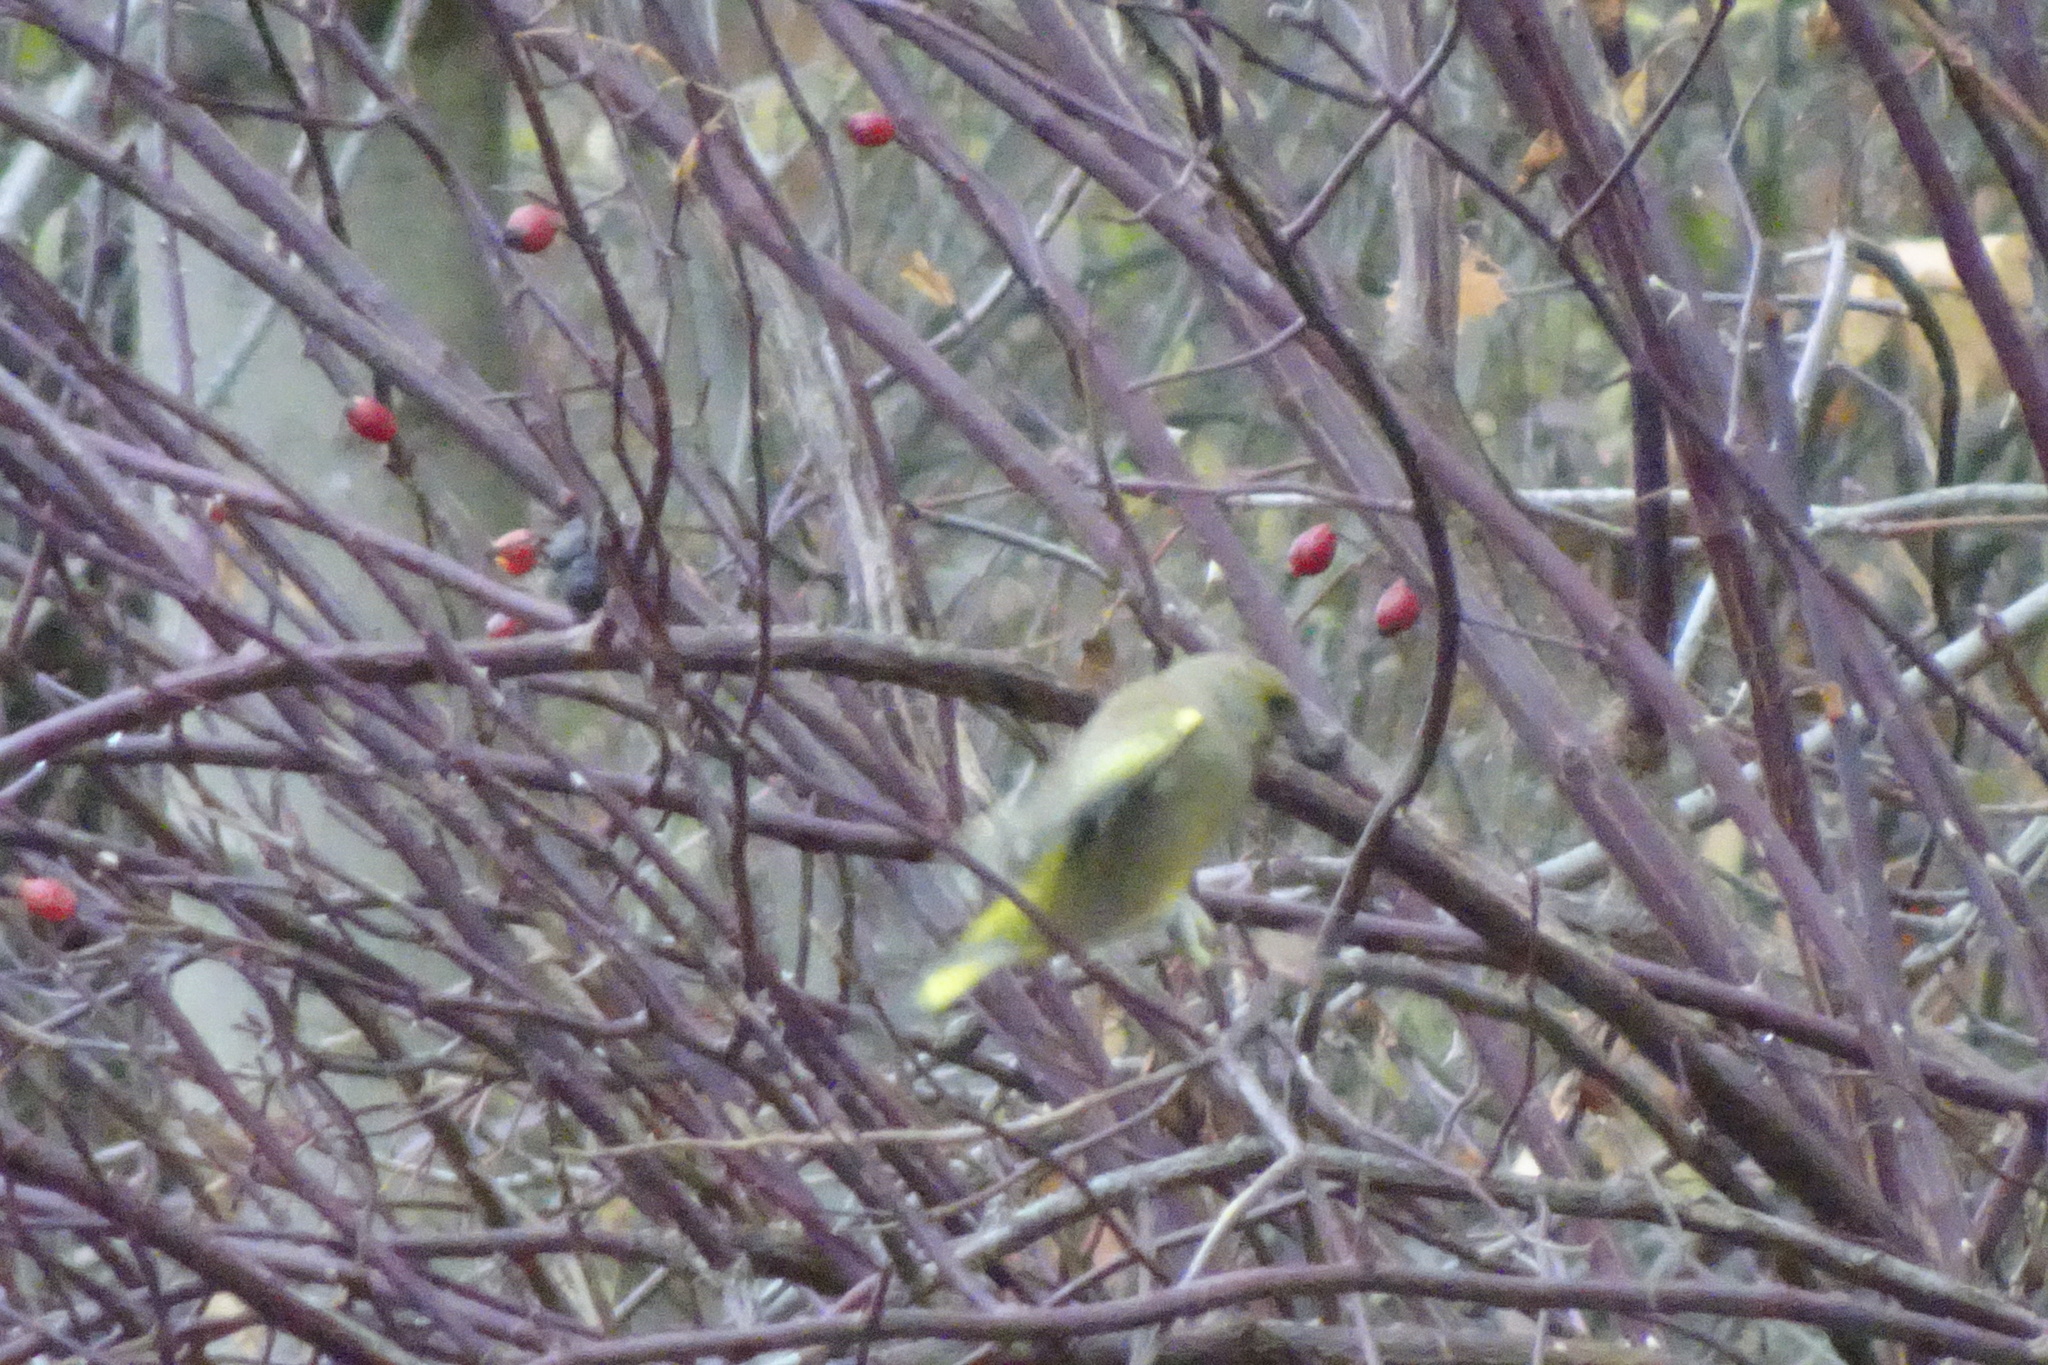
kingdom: Plantae
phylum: Tracheophyta
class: Liliopsida
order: Poales
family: Poaceae
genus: Chloris
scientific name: Chloris chloris
